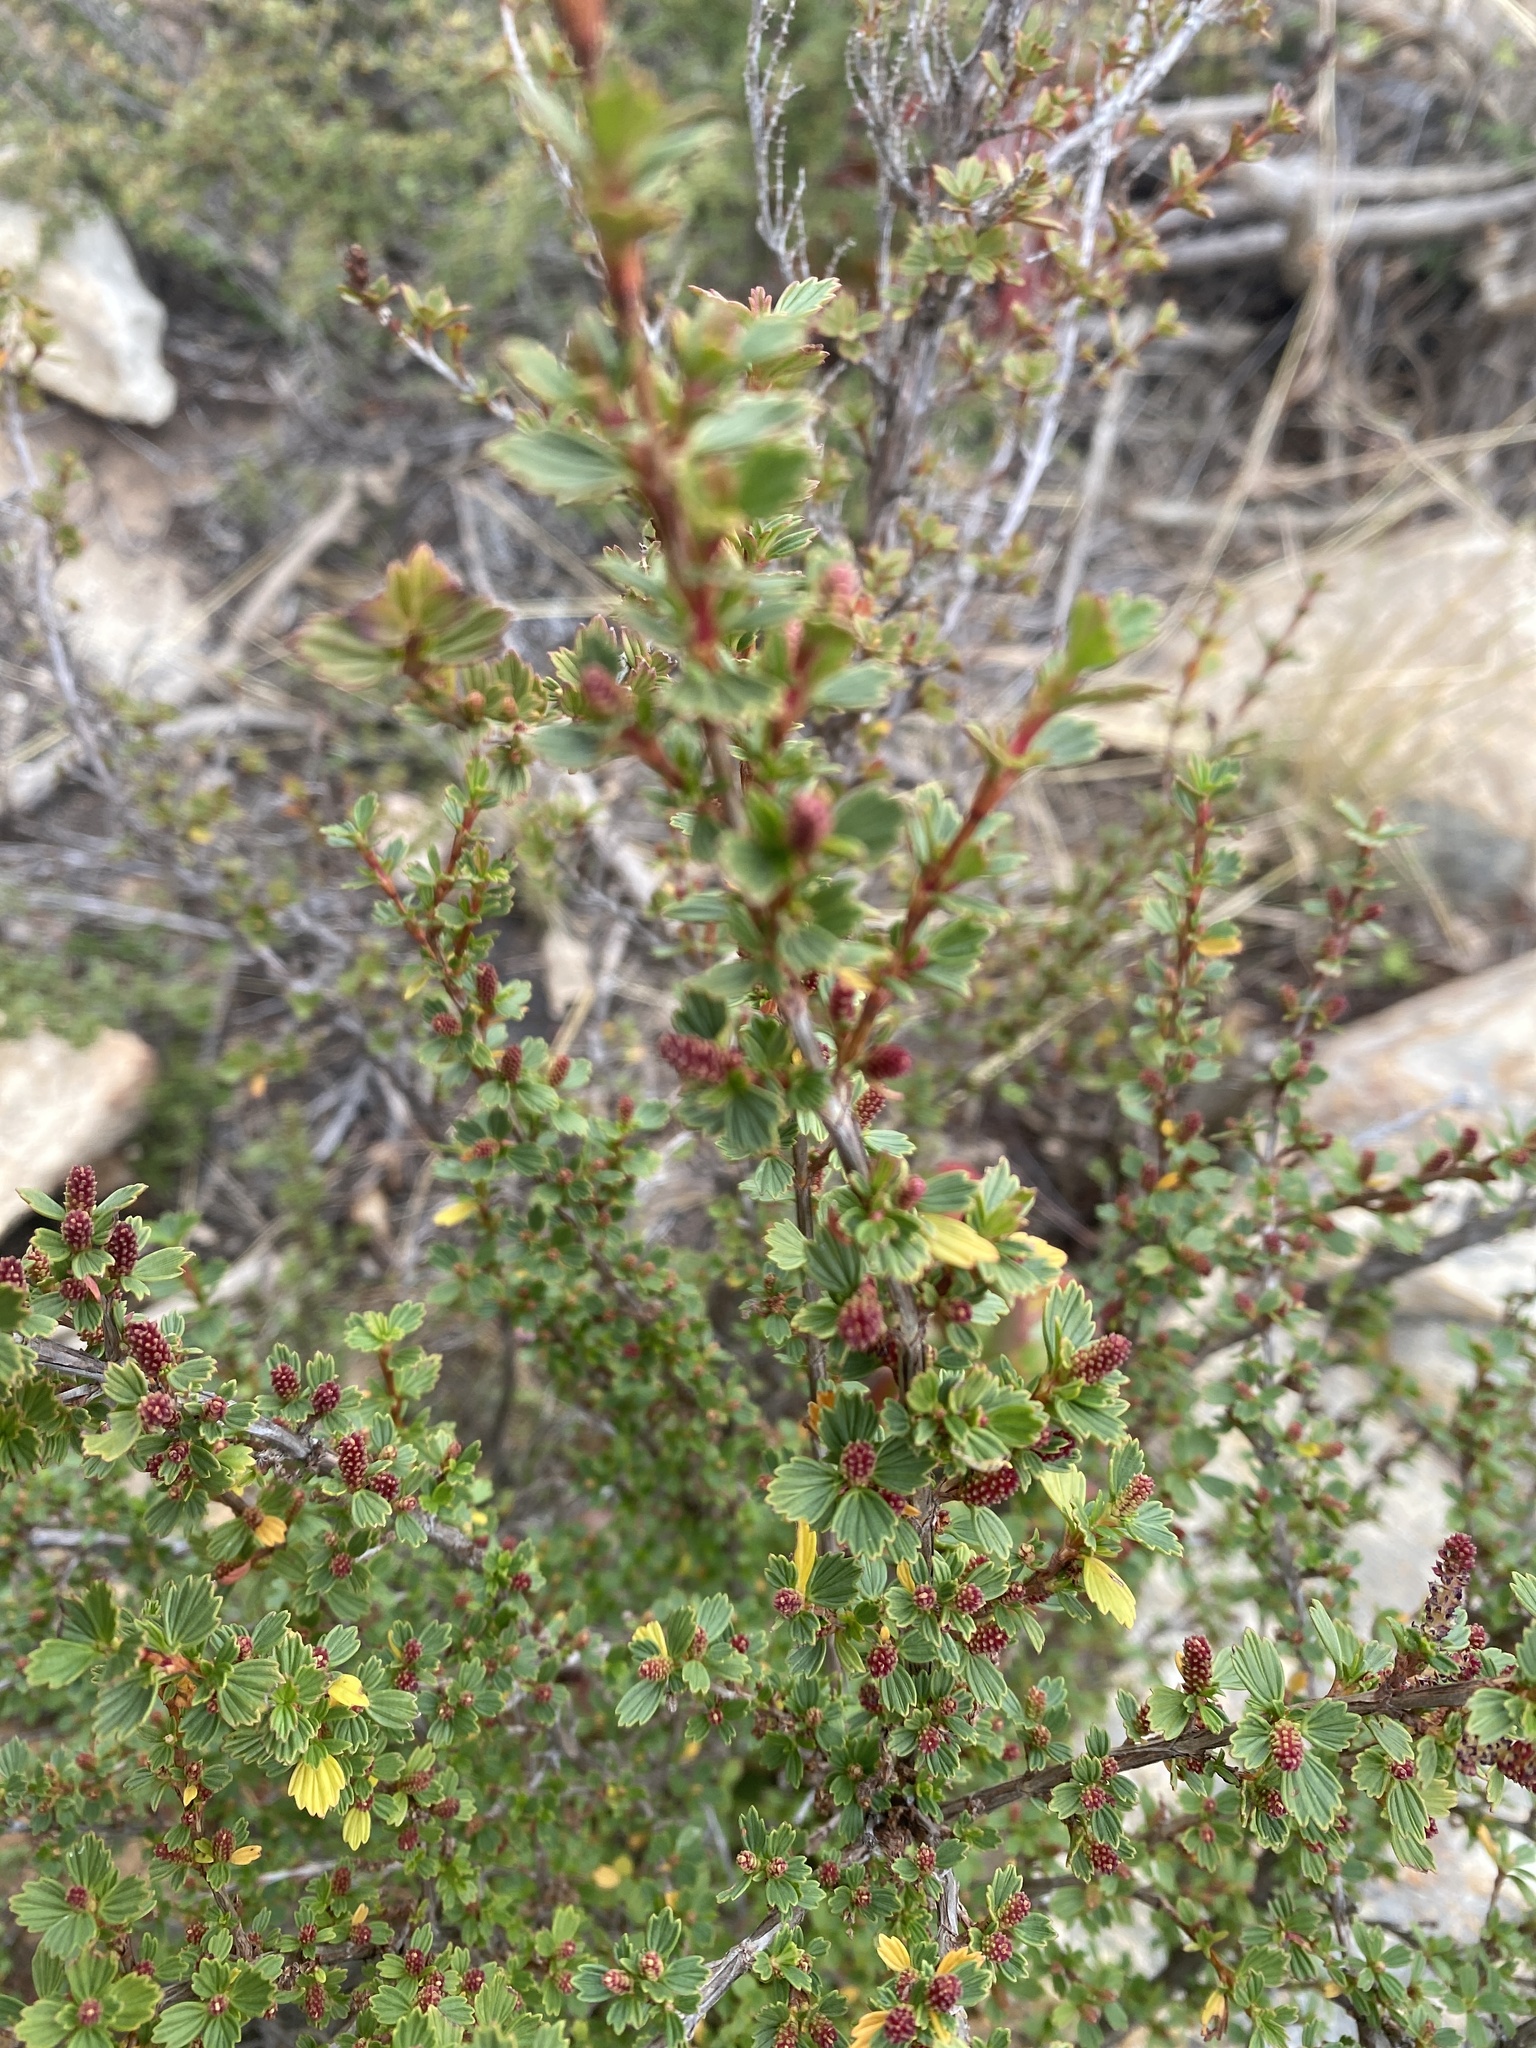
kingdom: Plantae
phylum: Tracheophyta
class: Magnoliopsida
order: Gunnerales
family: Myrothamnaceae
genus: Myrothamnus
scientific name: Myrothamnus flabellifolius
